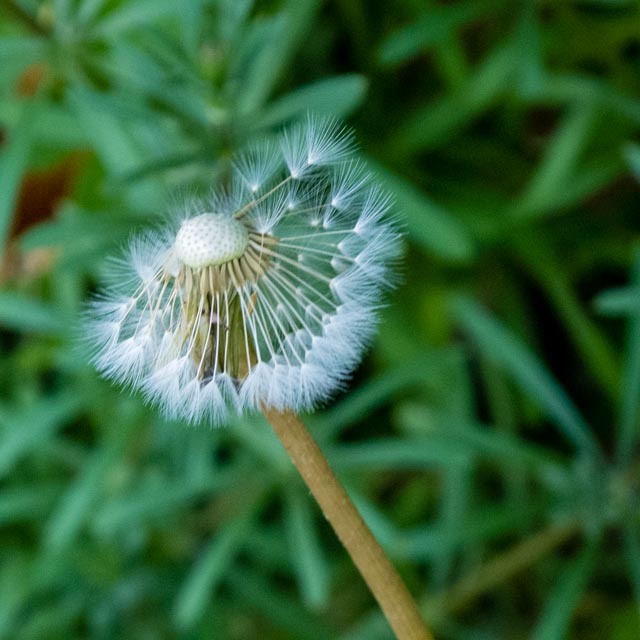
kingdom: Plantae
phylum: Tracheophyta
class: Magnoliopsida
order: Asterales
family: Asteraceae
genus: Taraxacum
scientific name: Taraxacum officinale
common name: Common dandelion
